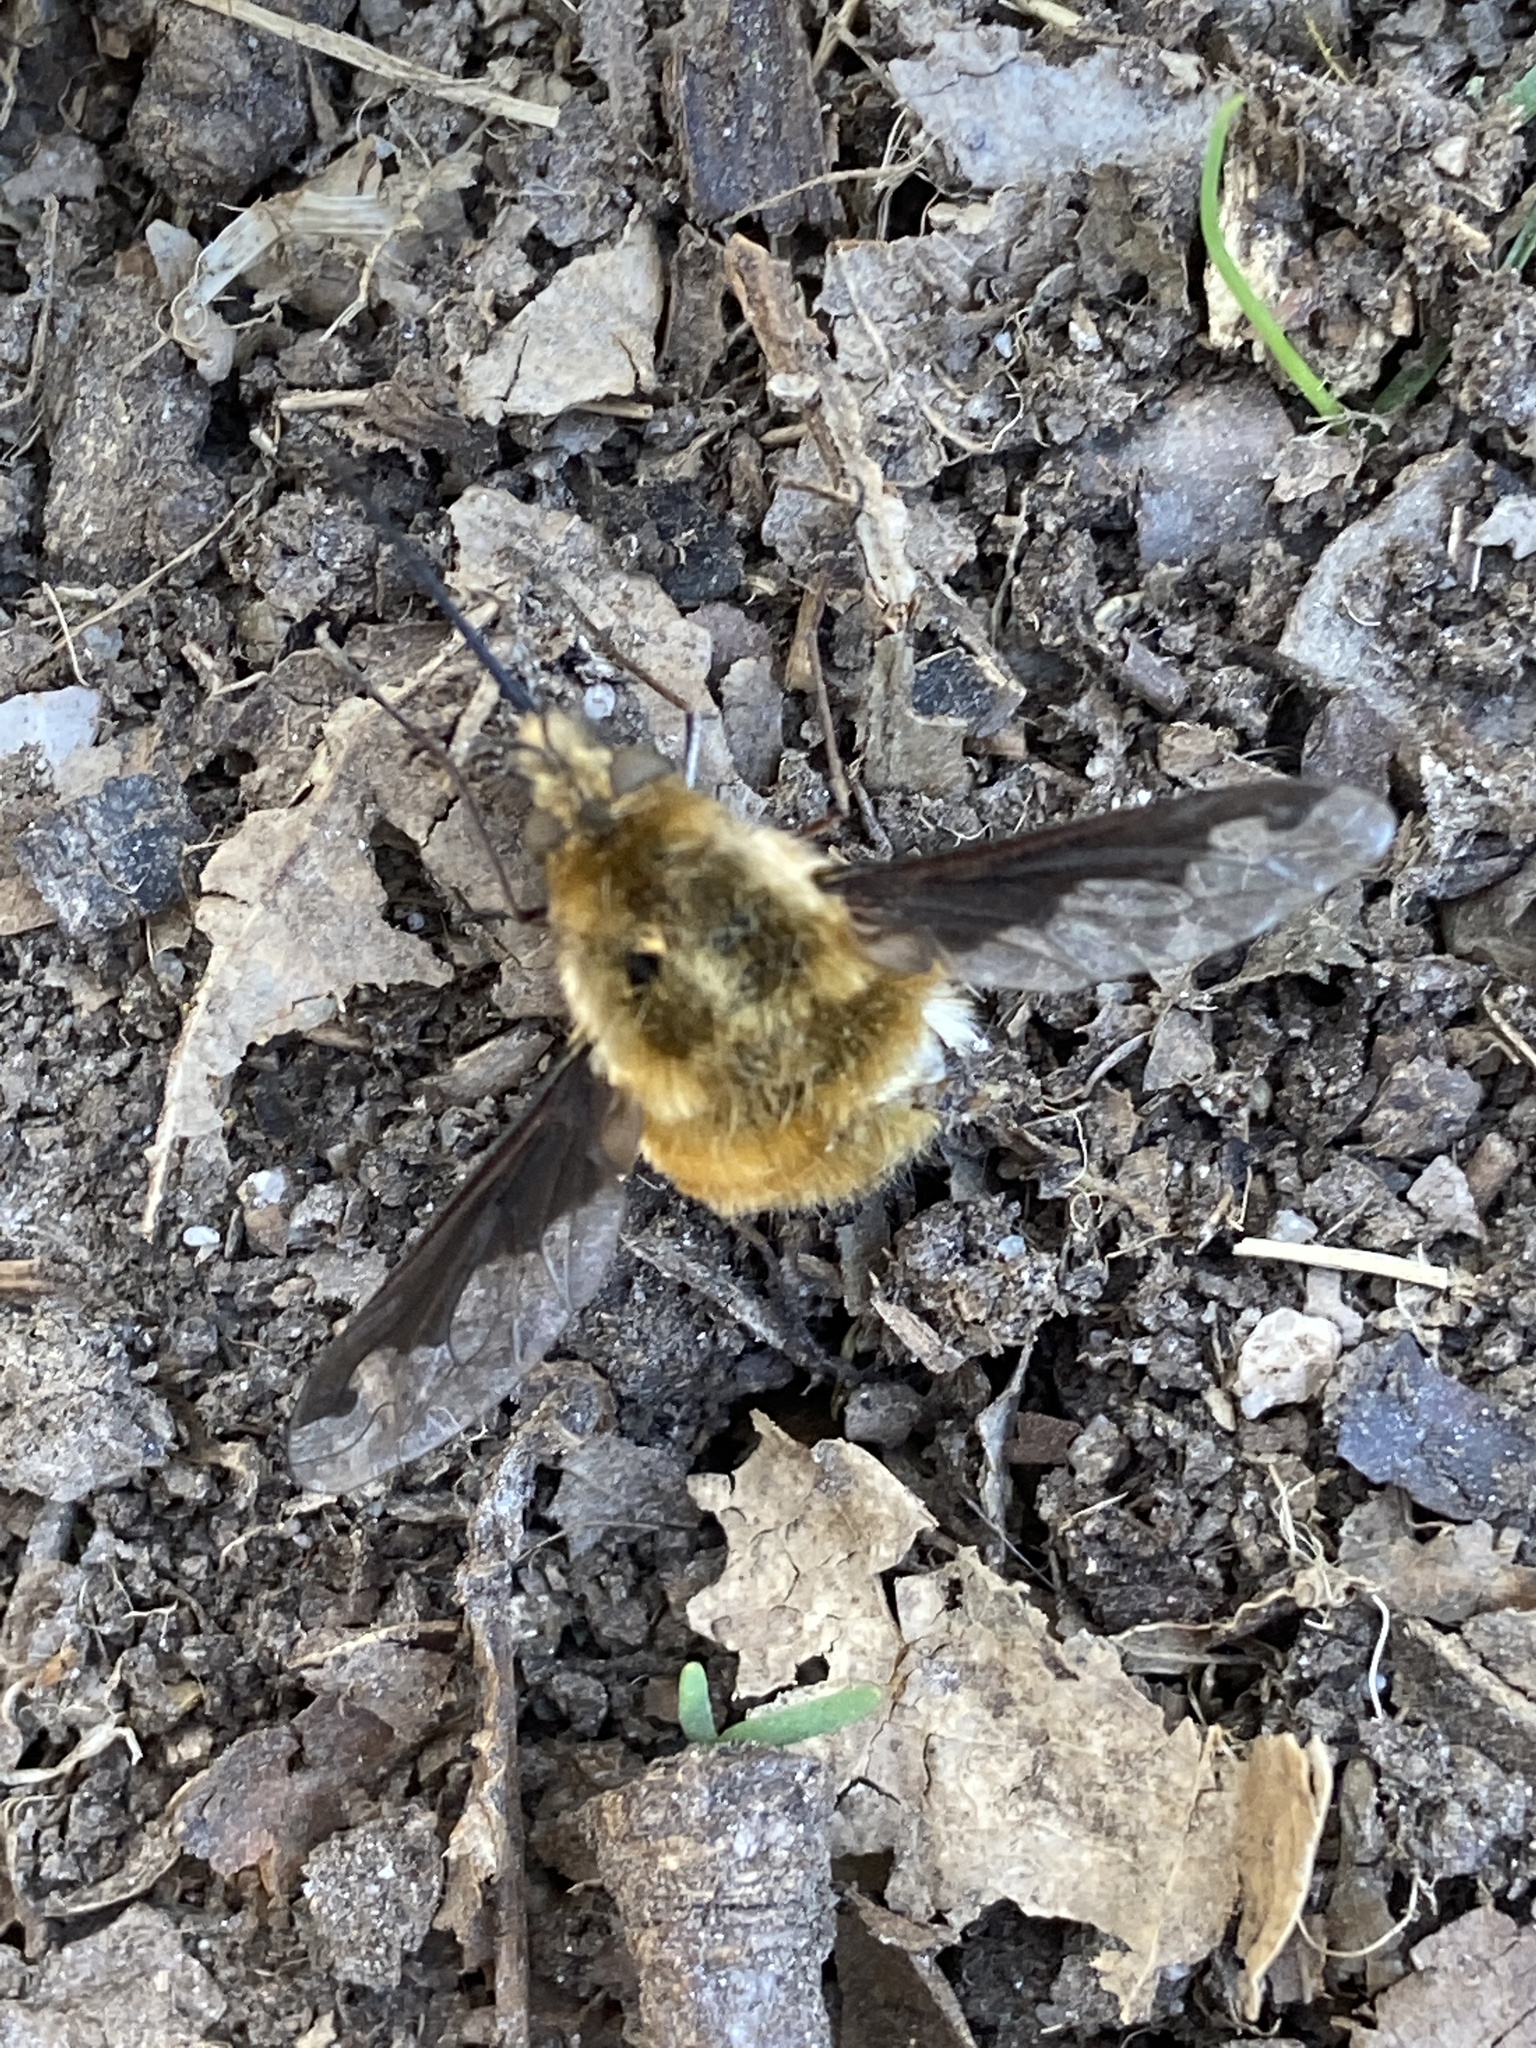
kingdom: Animalia
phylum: Arthropoda
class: Insecta
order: Diptera
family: Bombyliidae
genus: Bombylius
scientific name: Bombylius major
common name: Bee fly
